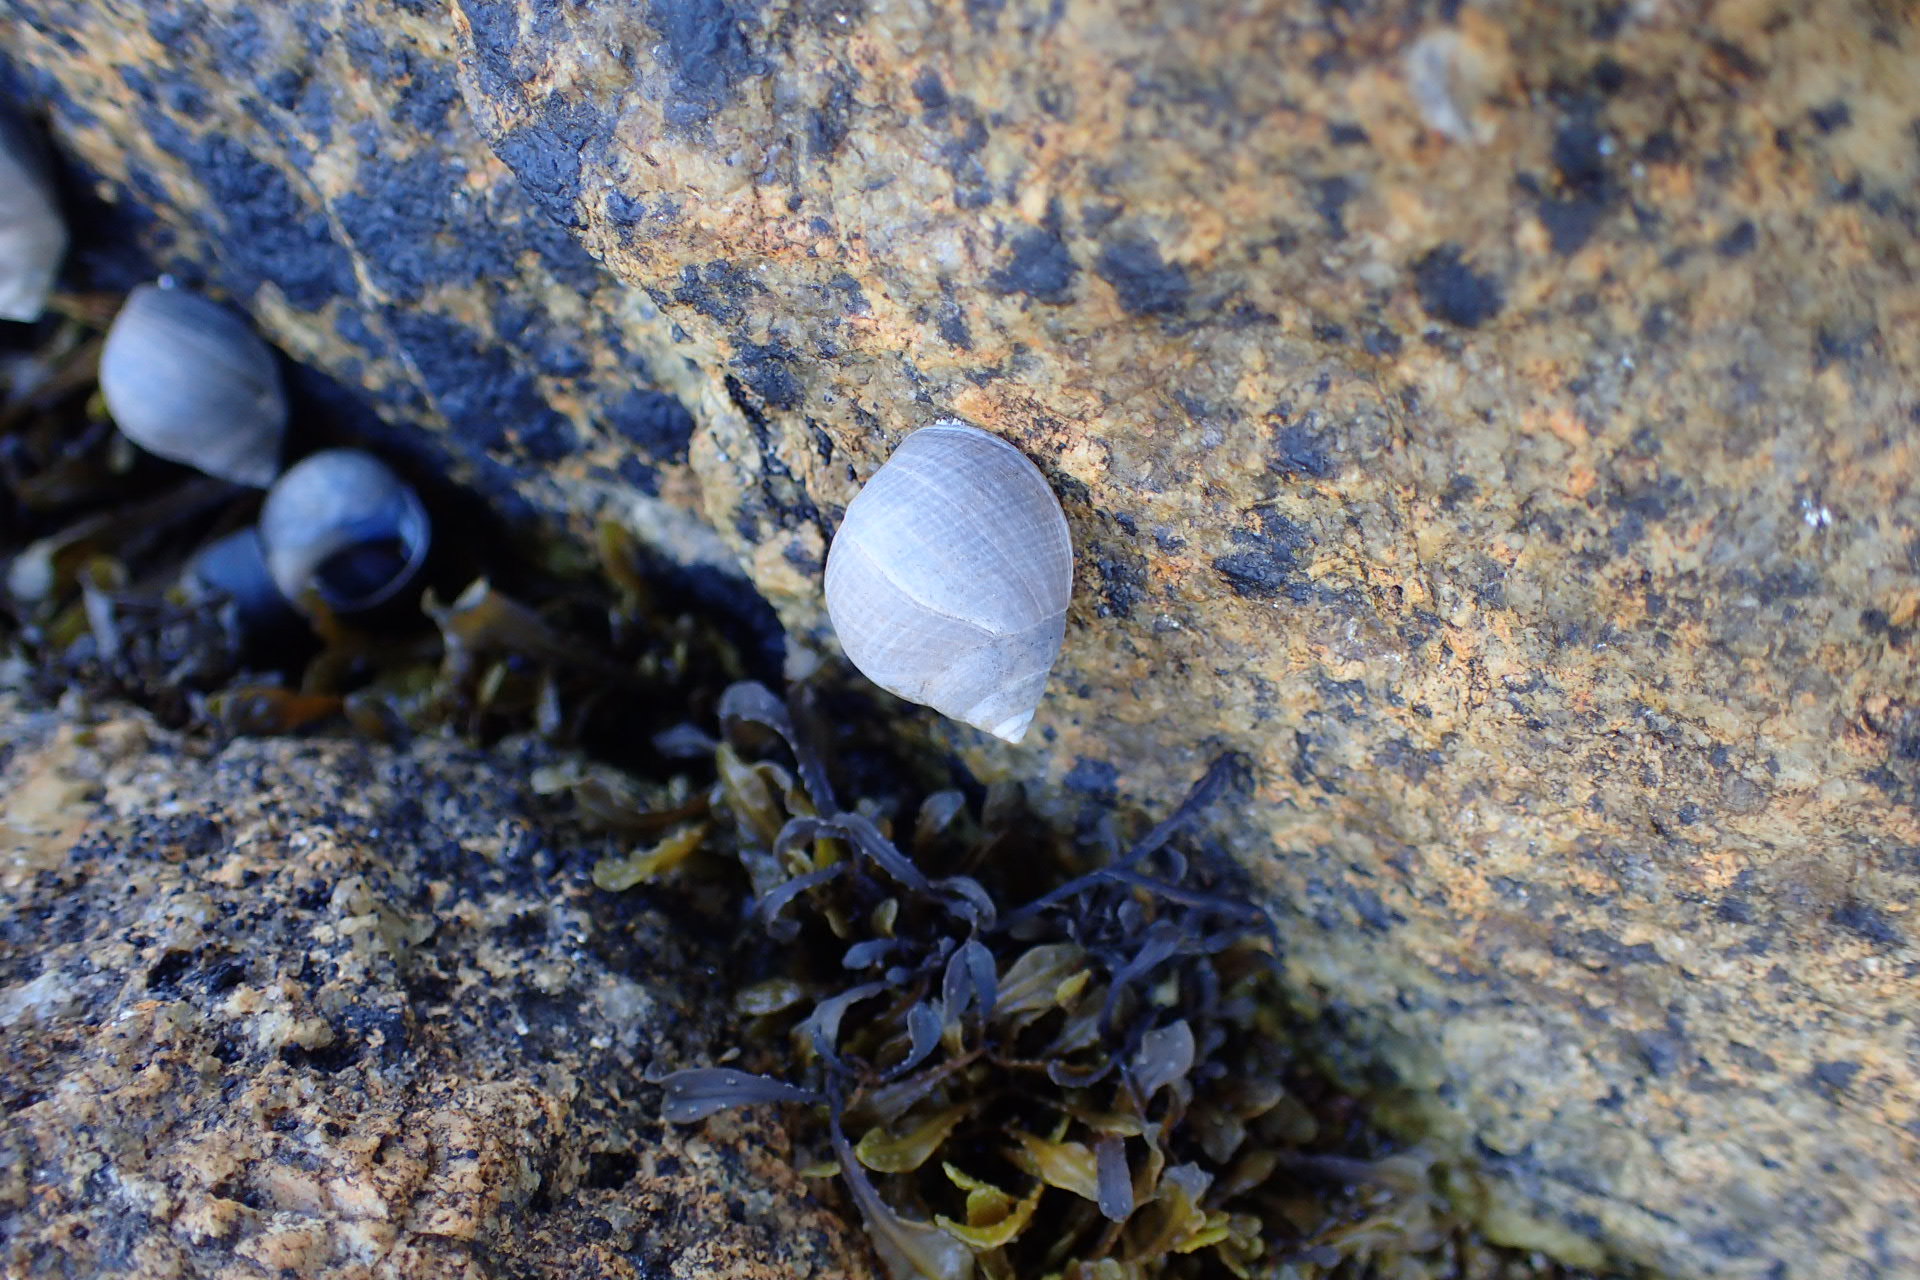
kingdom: Animalia
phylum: Mollusca
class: Gastropoda
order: Littorinimorpha
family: Littorinidae
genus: Littorina
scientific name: Littorina littorea
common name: Common periwinkle
